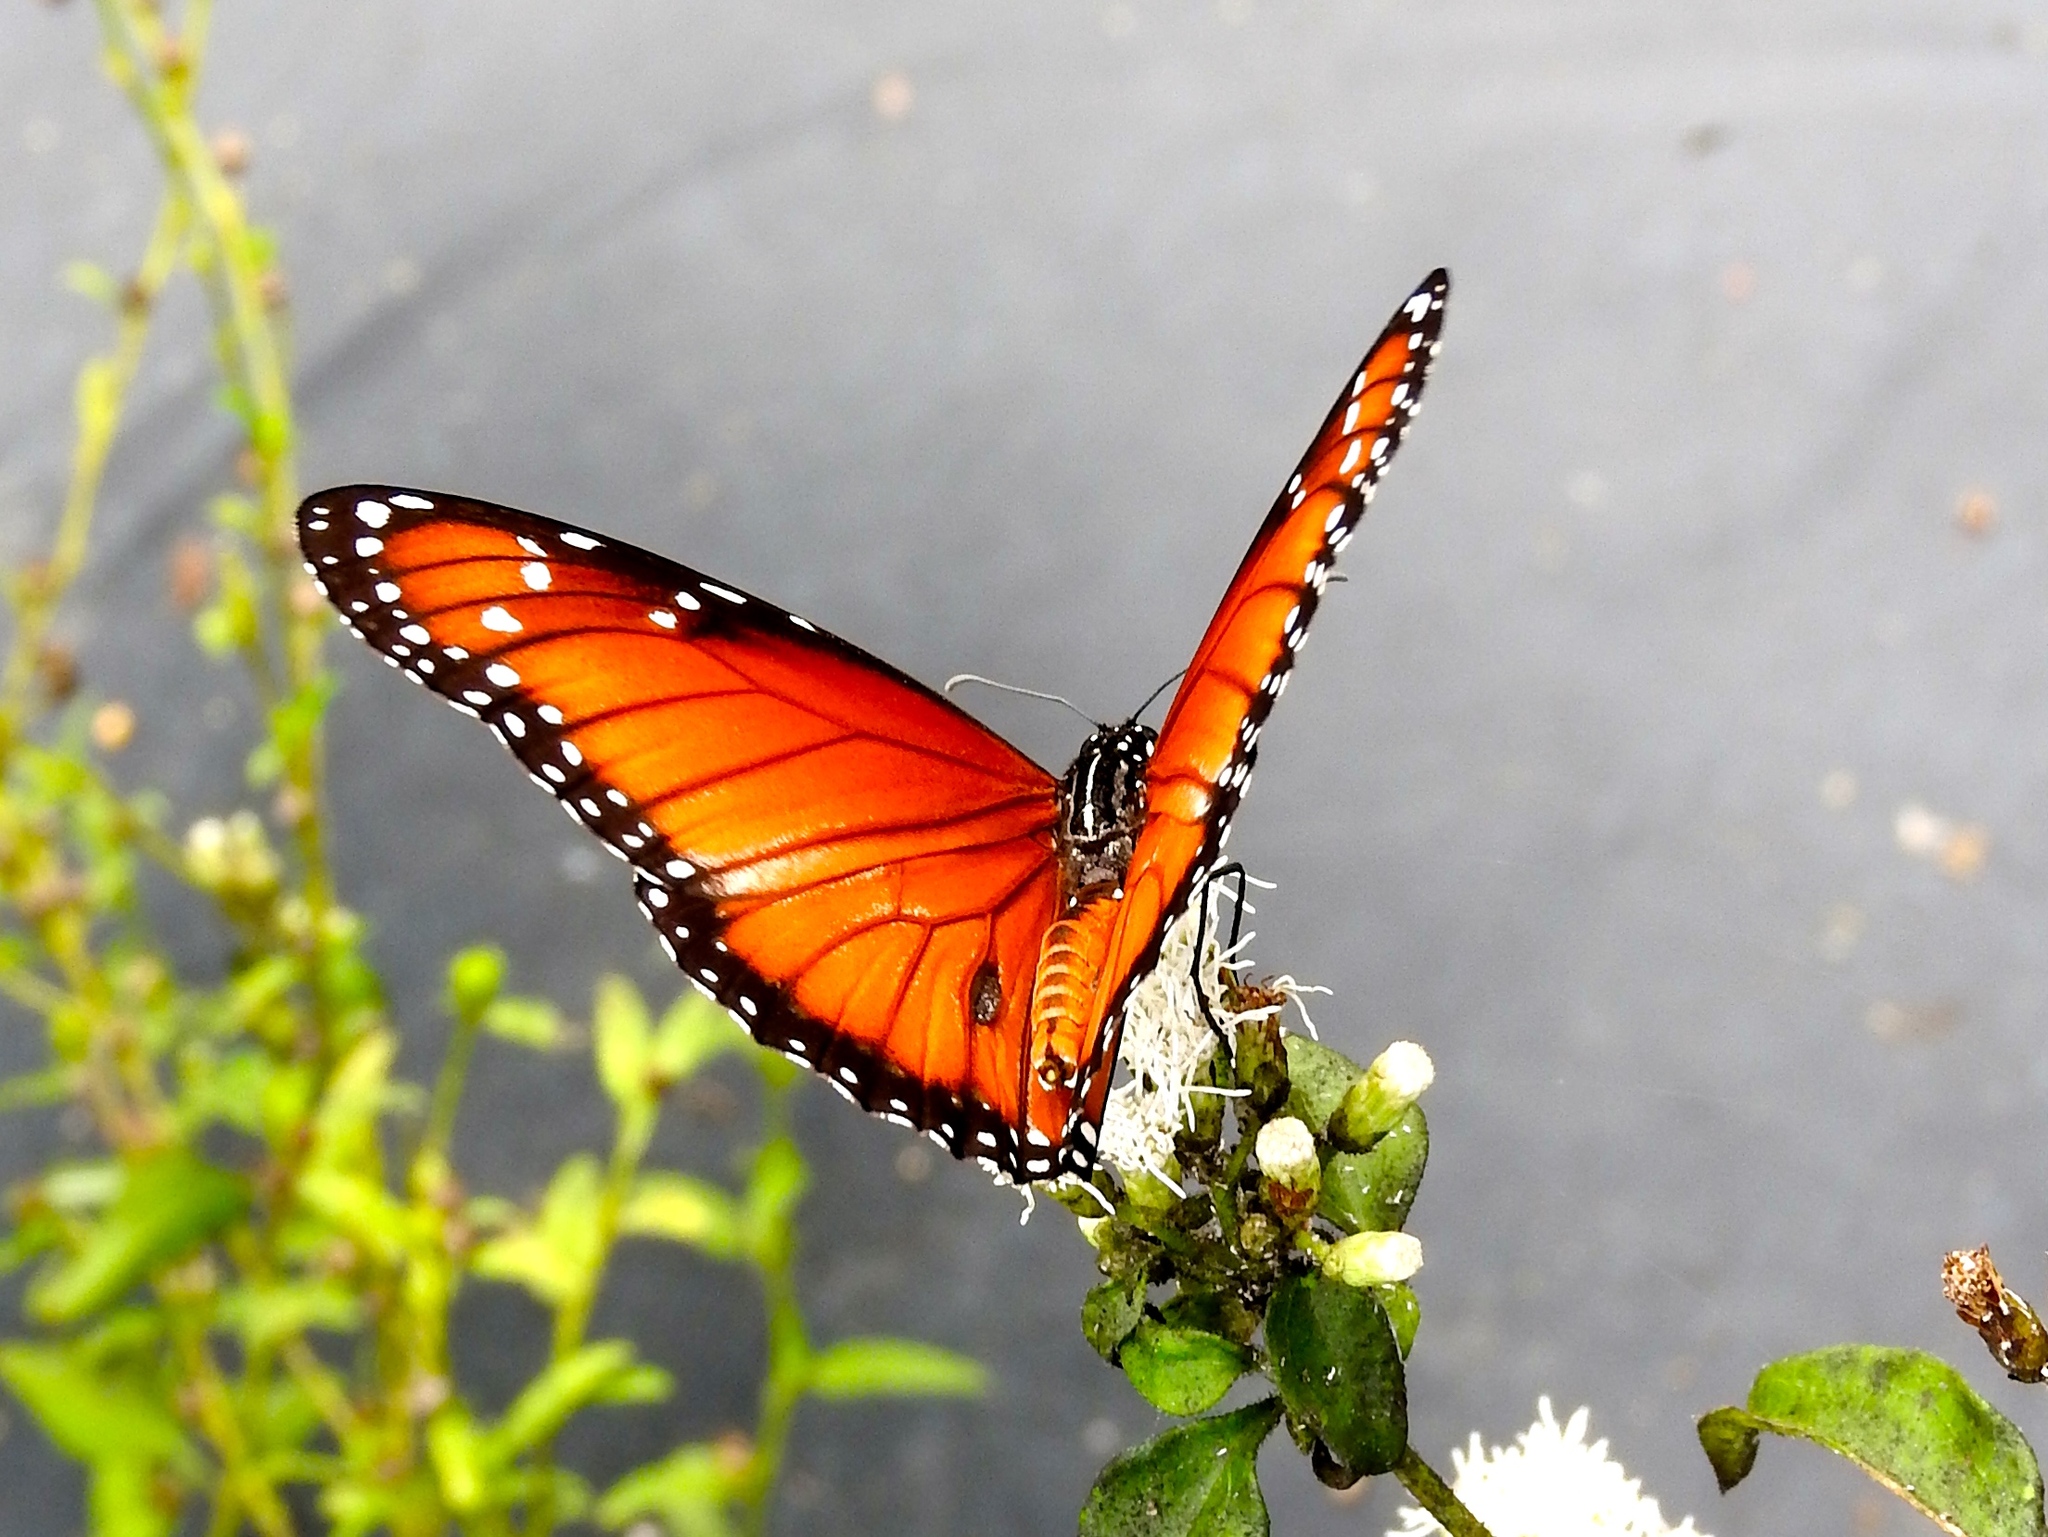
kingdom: Animalia
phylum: Arthropoda
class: Insecta
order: Lepidoptera
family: Nymphalidae
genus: Danaus
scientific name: Danaus eresimus
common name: Soldier
